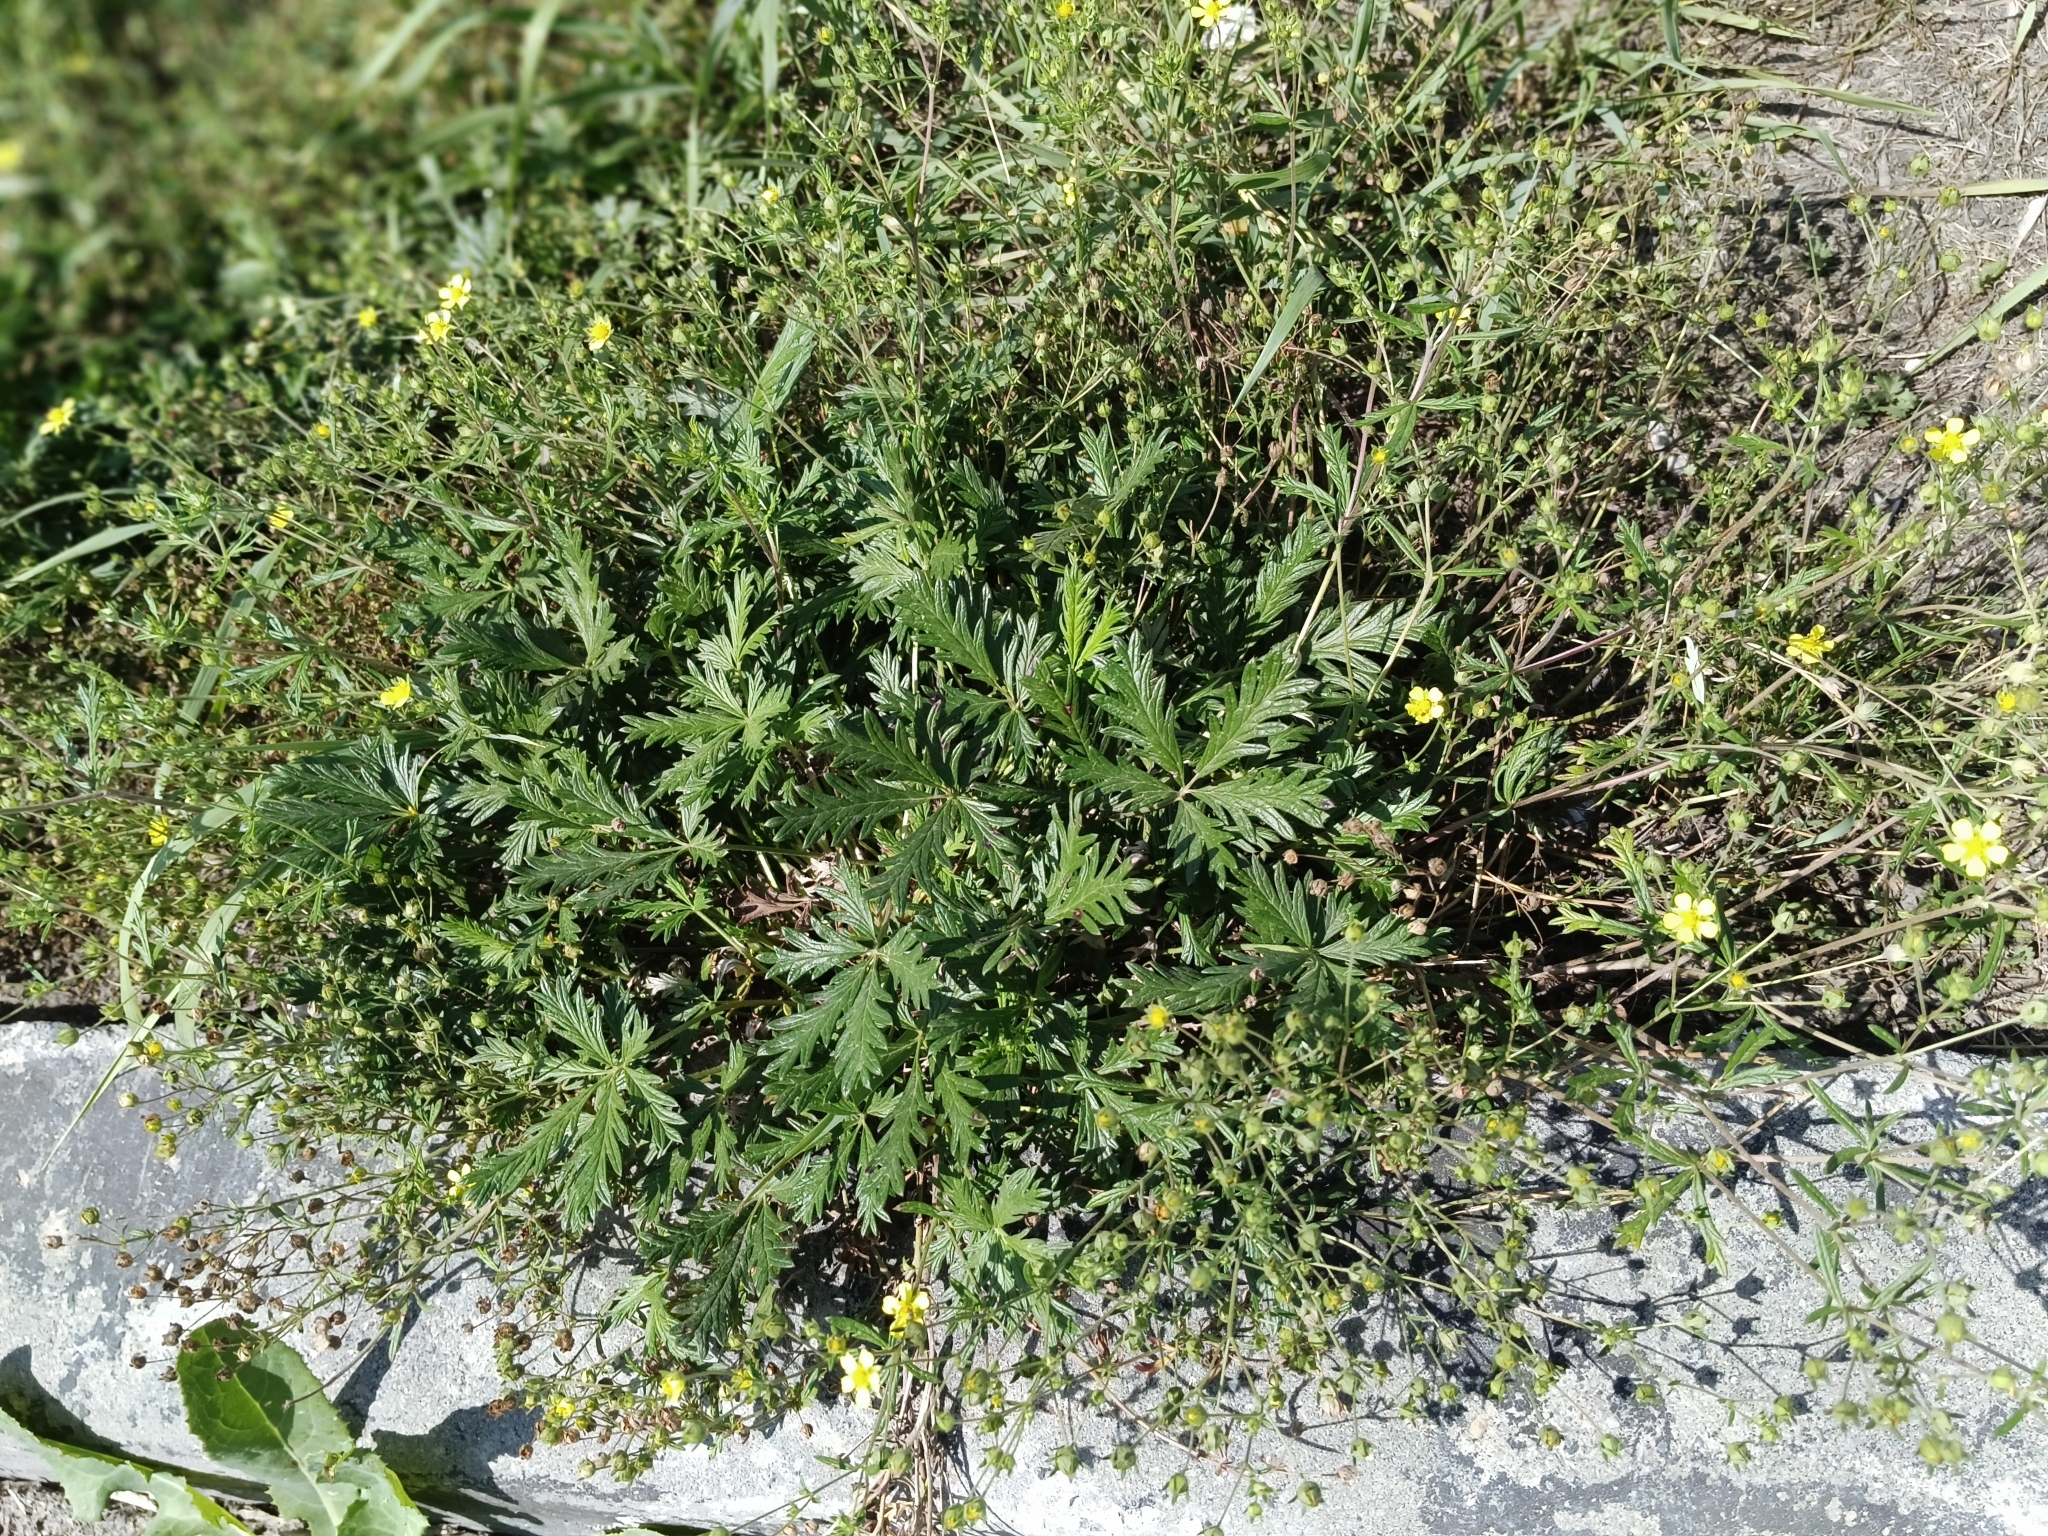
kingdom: Plantae
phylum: Tracheophyta
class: Magnoliopsida
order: Rosales
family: Rosaceae
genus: Potentilla
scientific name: Potentilla argentea
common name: Hoary cinquefoil
